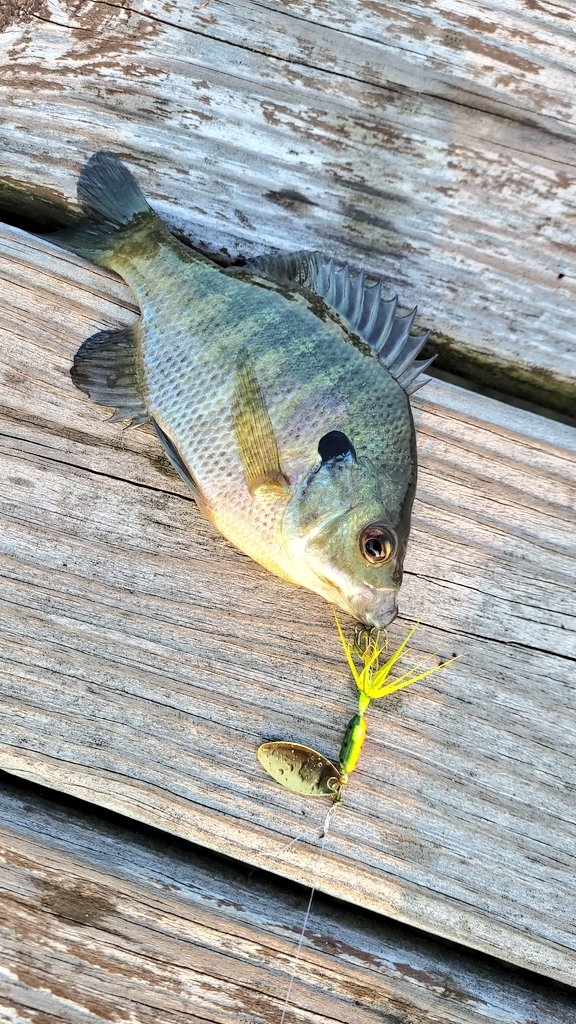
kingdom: Animalia
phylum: Chordata
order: Perciformes
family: Centrarchidae
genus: Lepomis
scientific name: Lepomis macrochirus
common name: Bluegill
